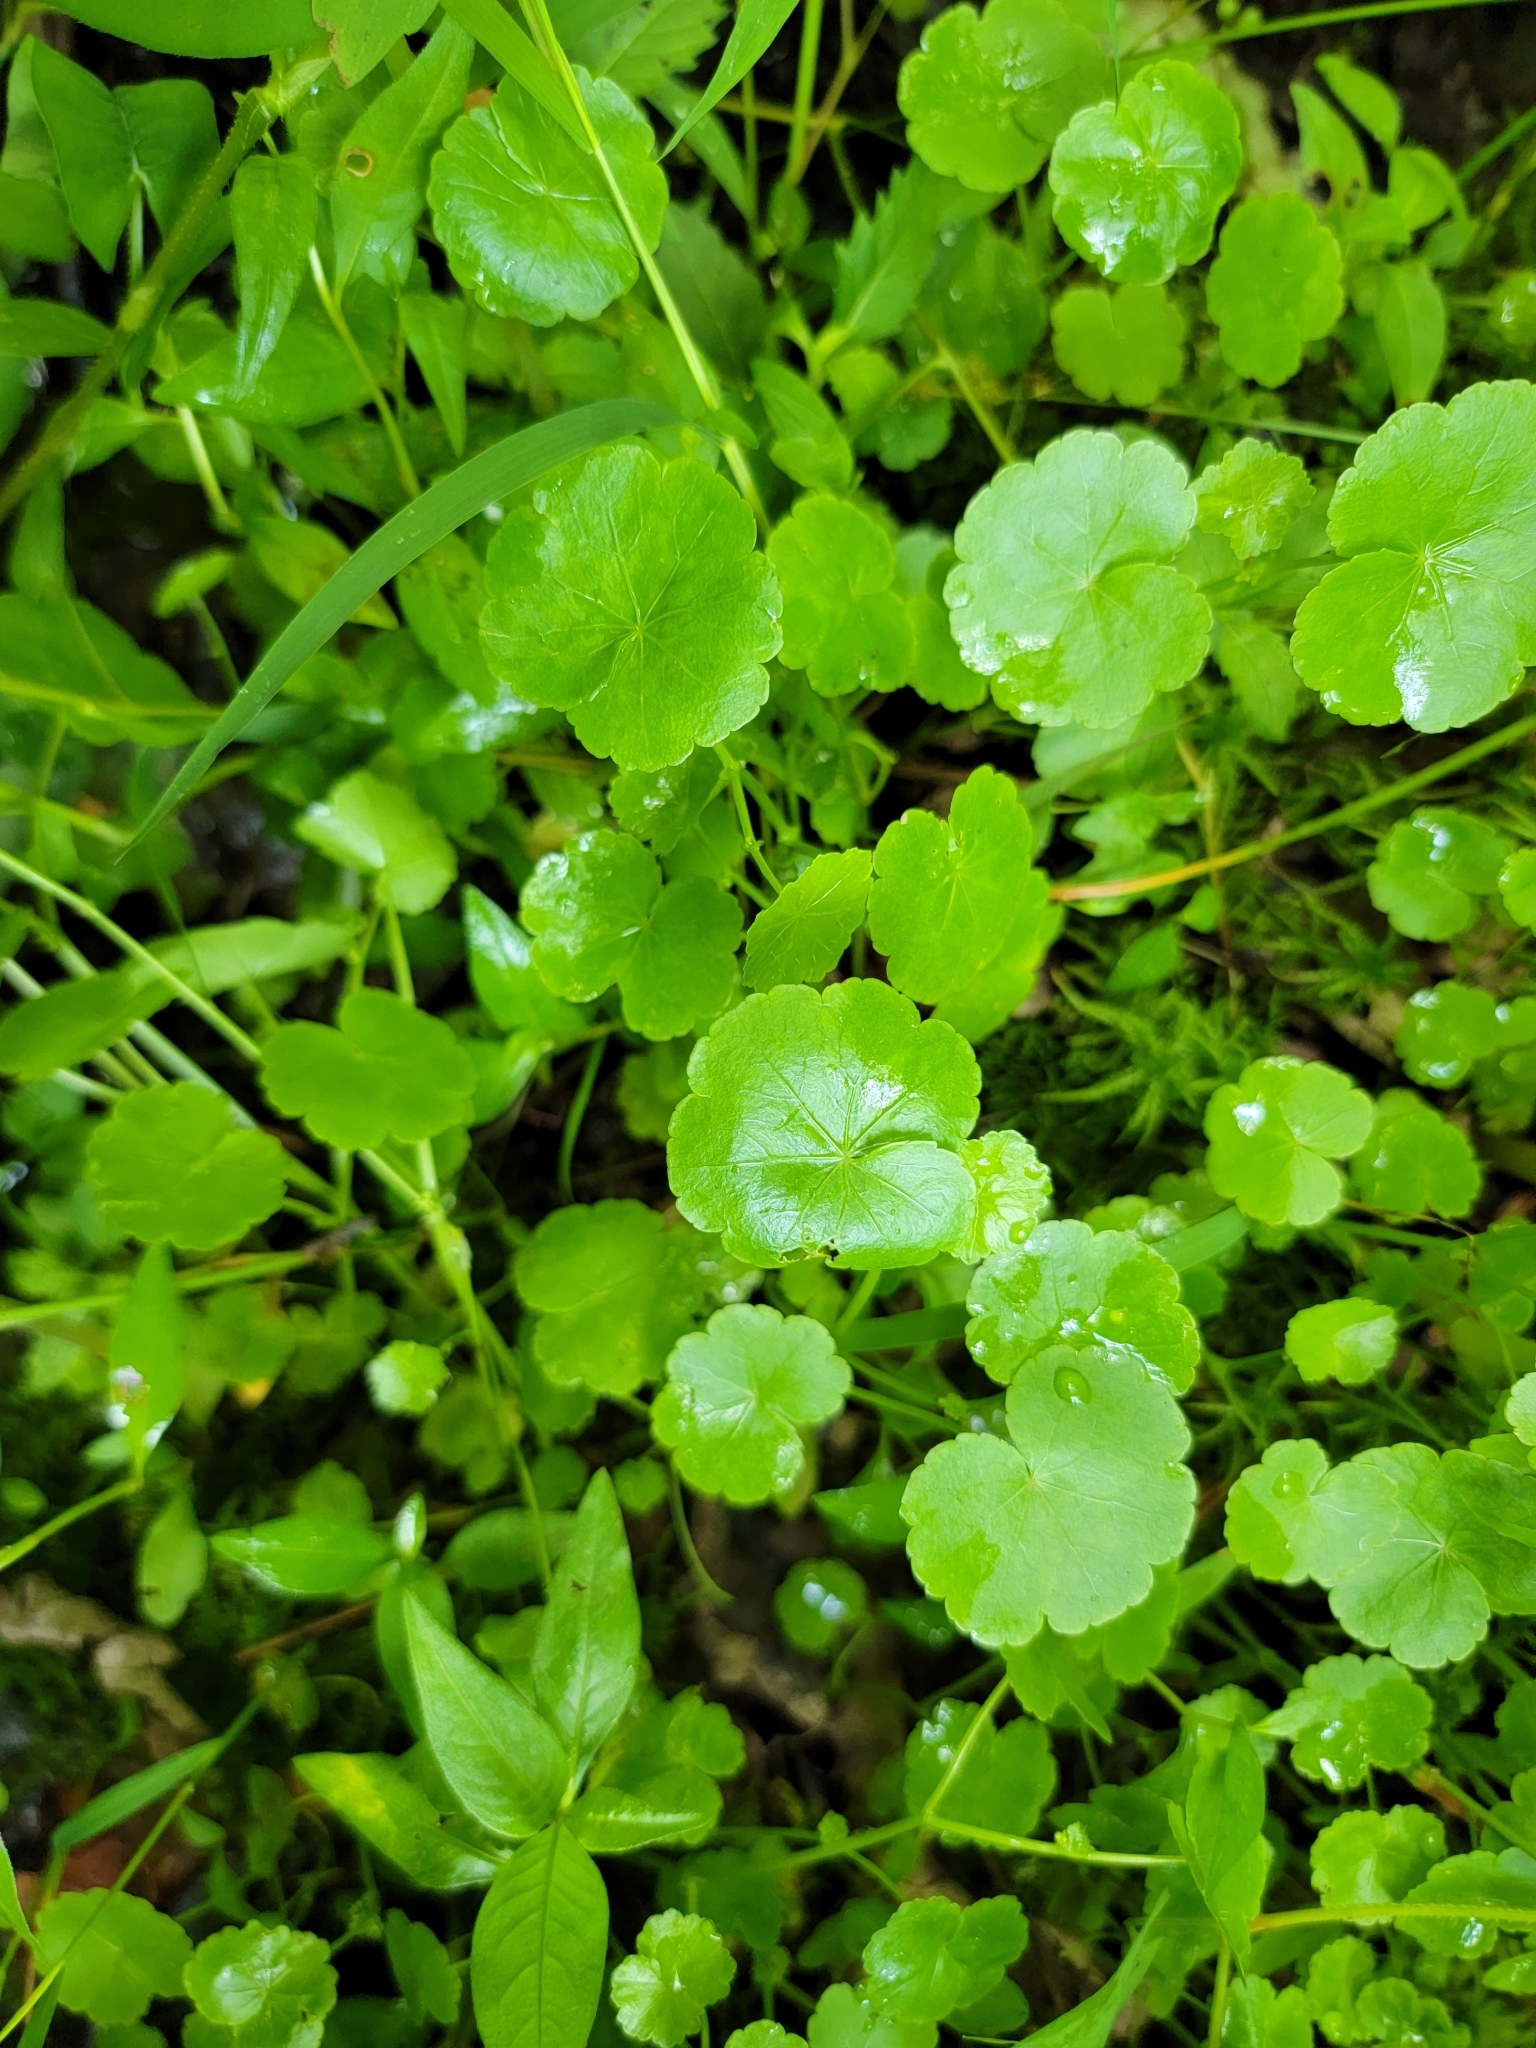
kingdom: Plantae
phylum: Tracheophyta
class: Magnoliopsida
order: Apiales
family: Araliaceae
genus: Hydrocotyle
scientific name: Hydrocotyle americana
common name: American water-pennywort
